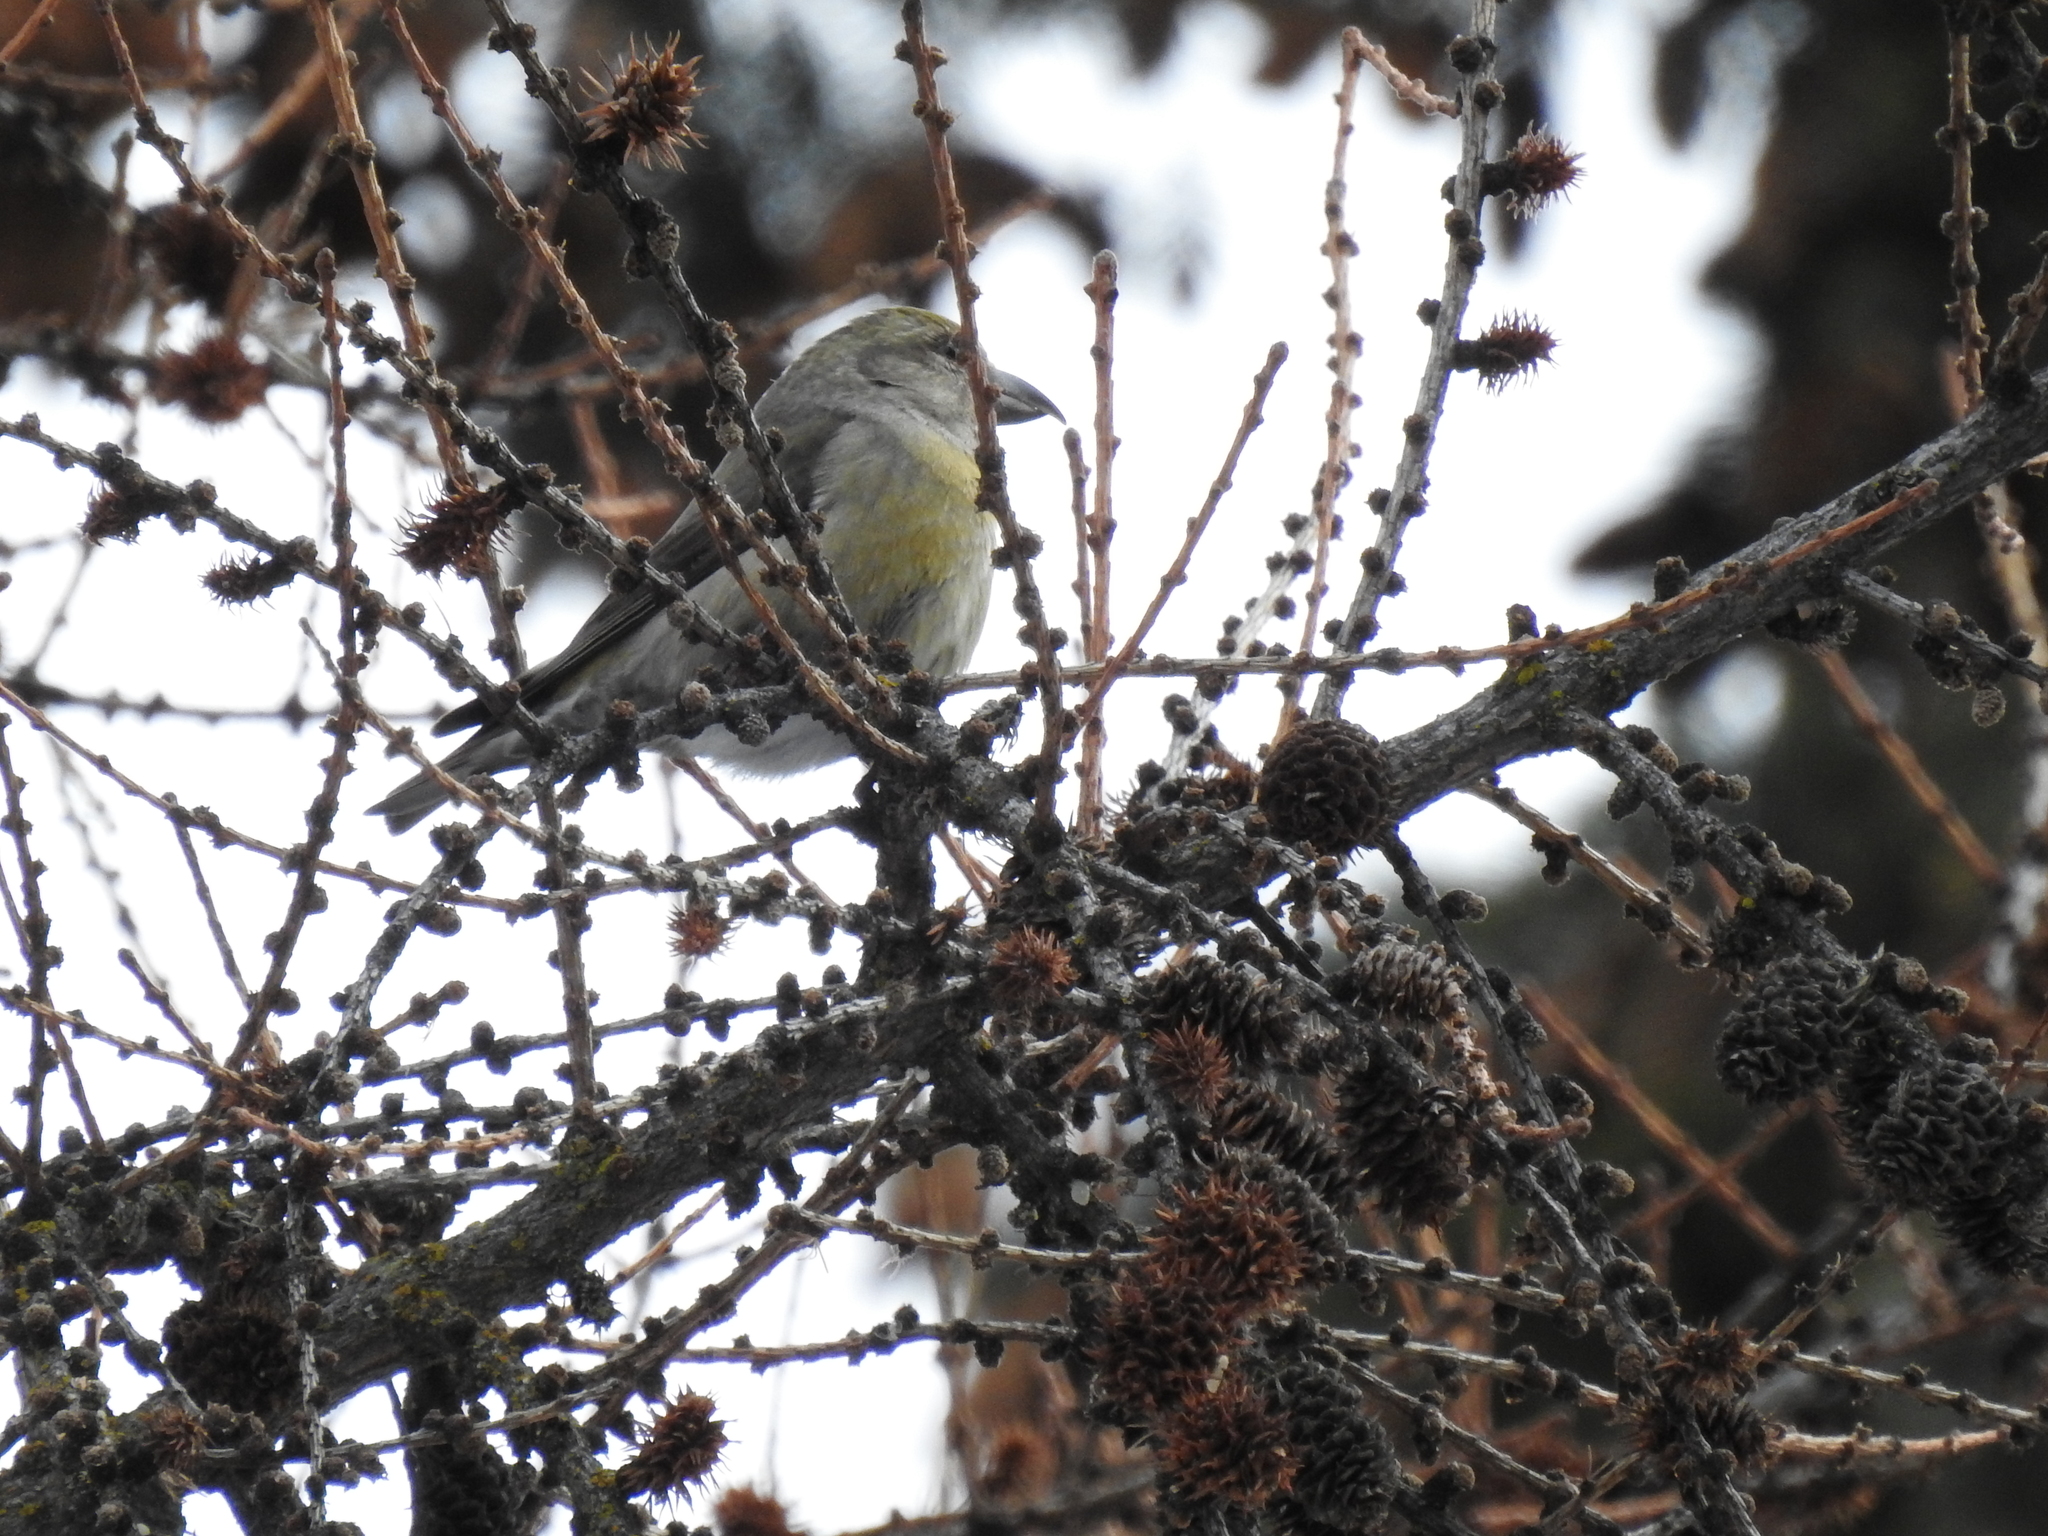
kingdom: Animalia
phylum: Chordata
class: Aves
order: Passeriformes
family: Fringillidae
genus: Loxia
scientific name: Loxia curvirostra
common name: Red crossbill
